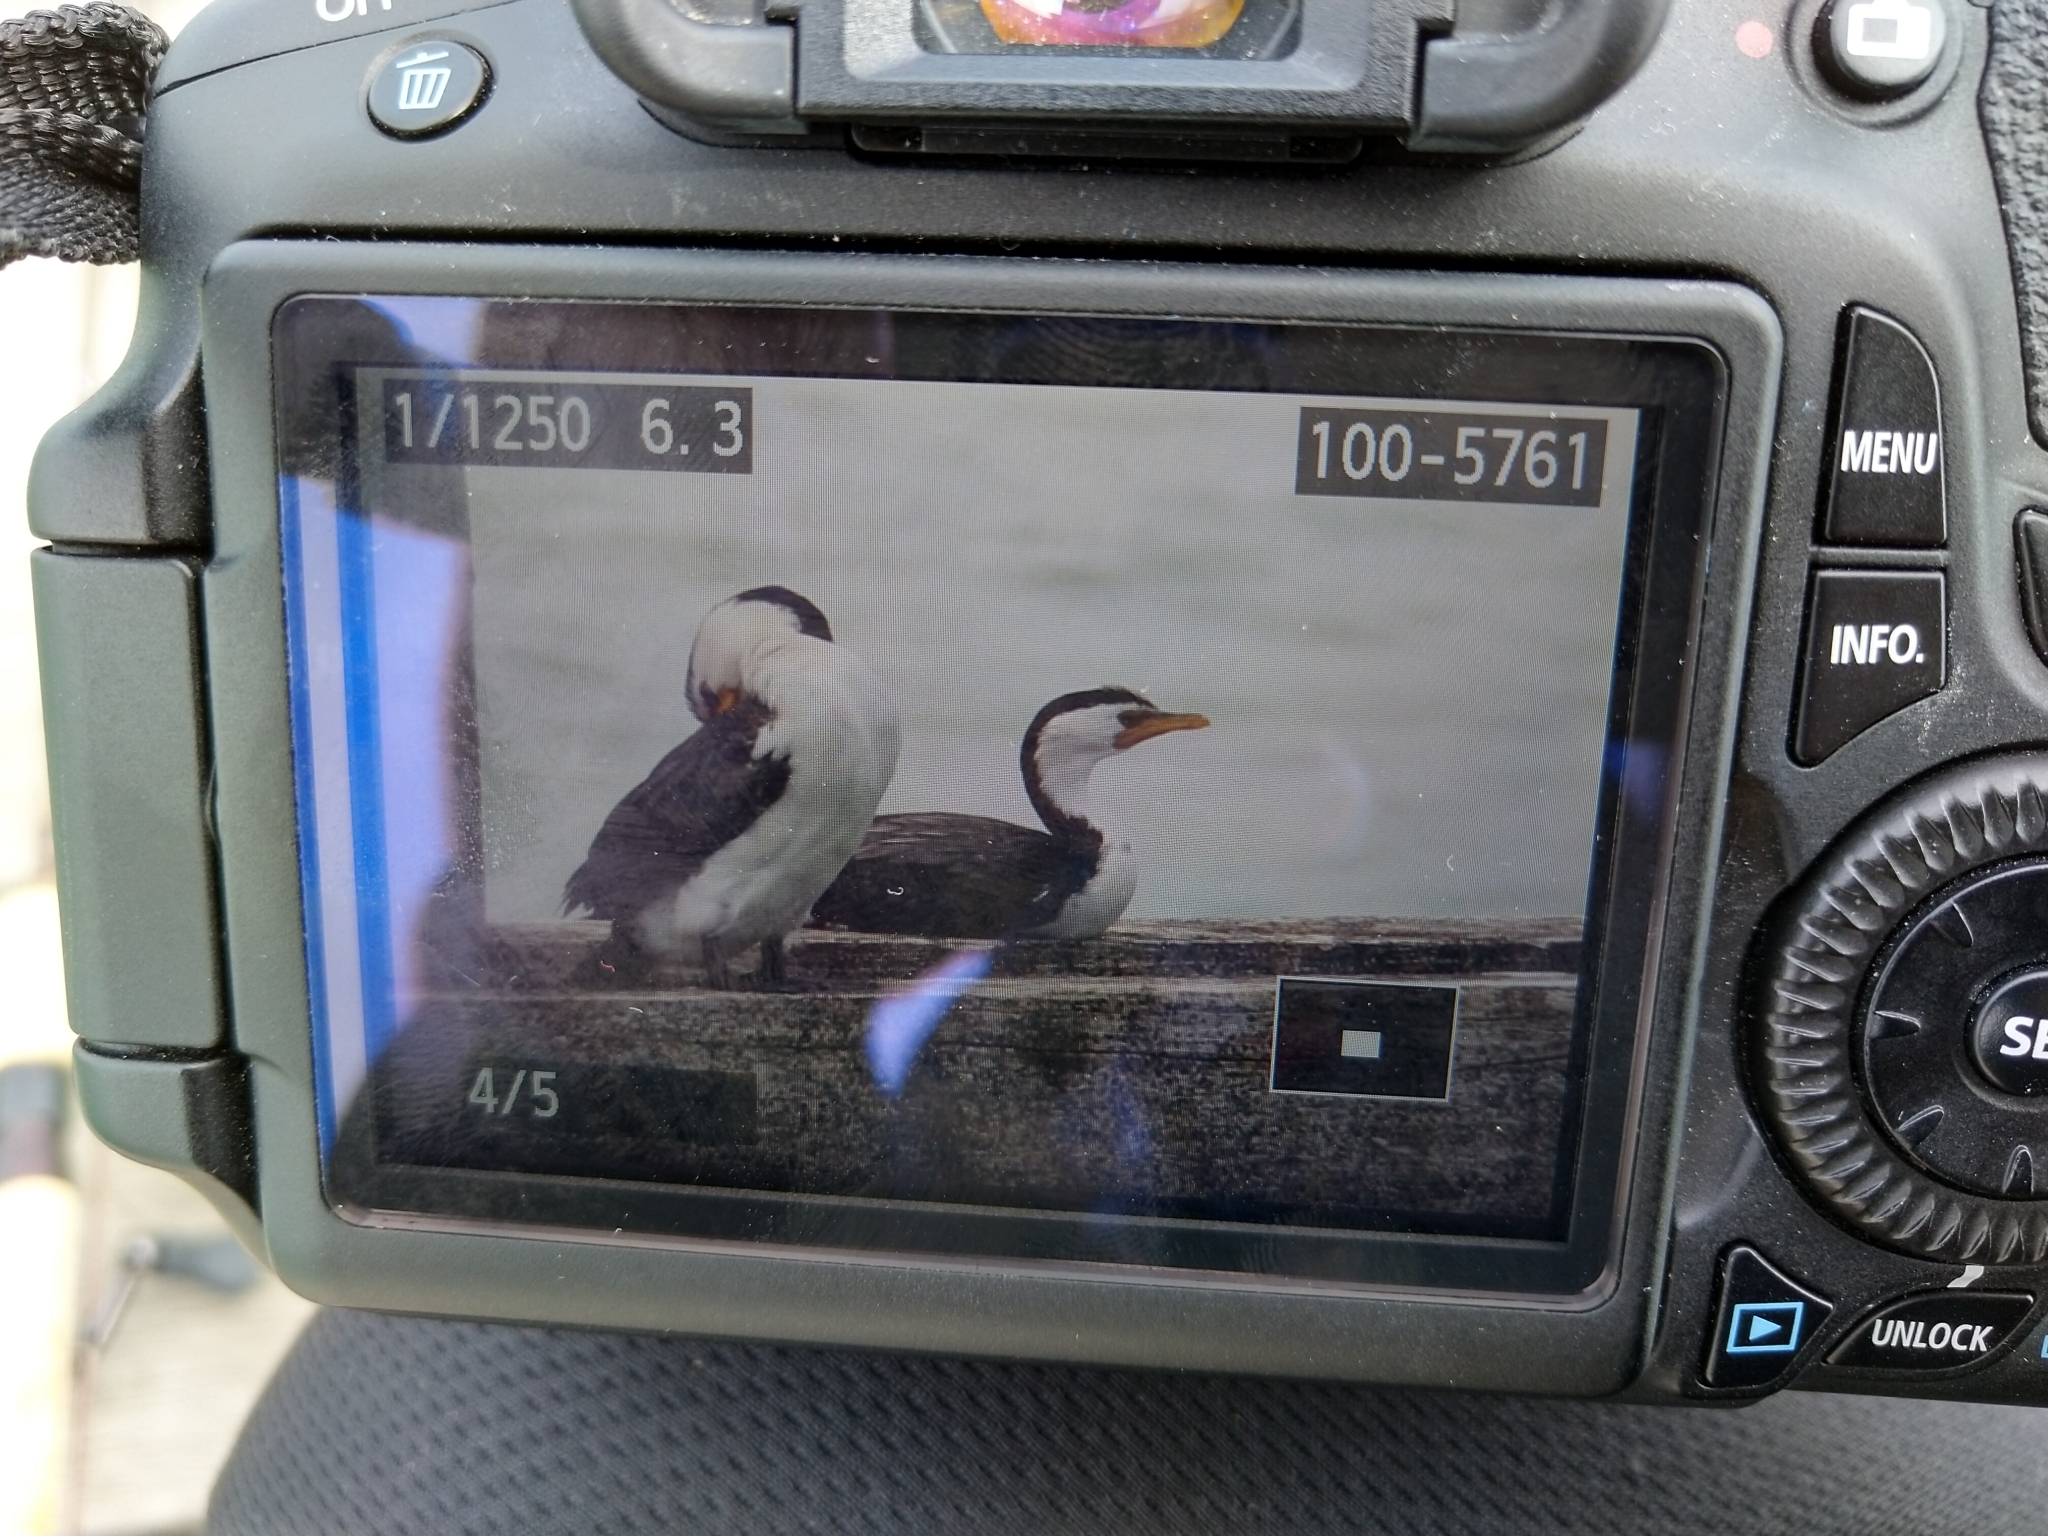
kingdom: Animalia
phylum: Chordata
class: Aves
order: Suliformes
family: Phalacrocoracidae
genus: Microcarbo
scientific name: Microcarbo melanoleucos
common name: Little pied cormorant
